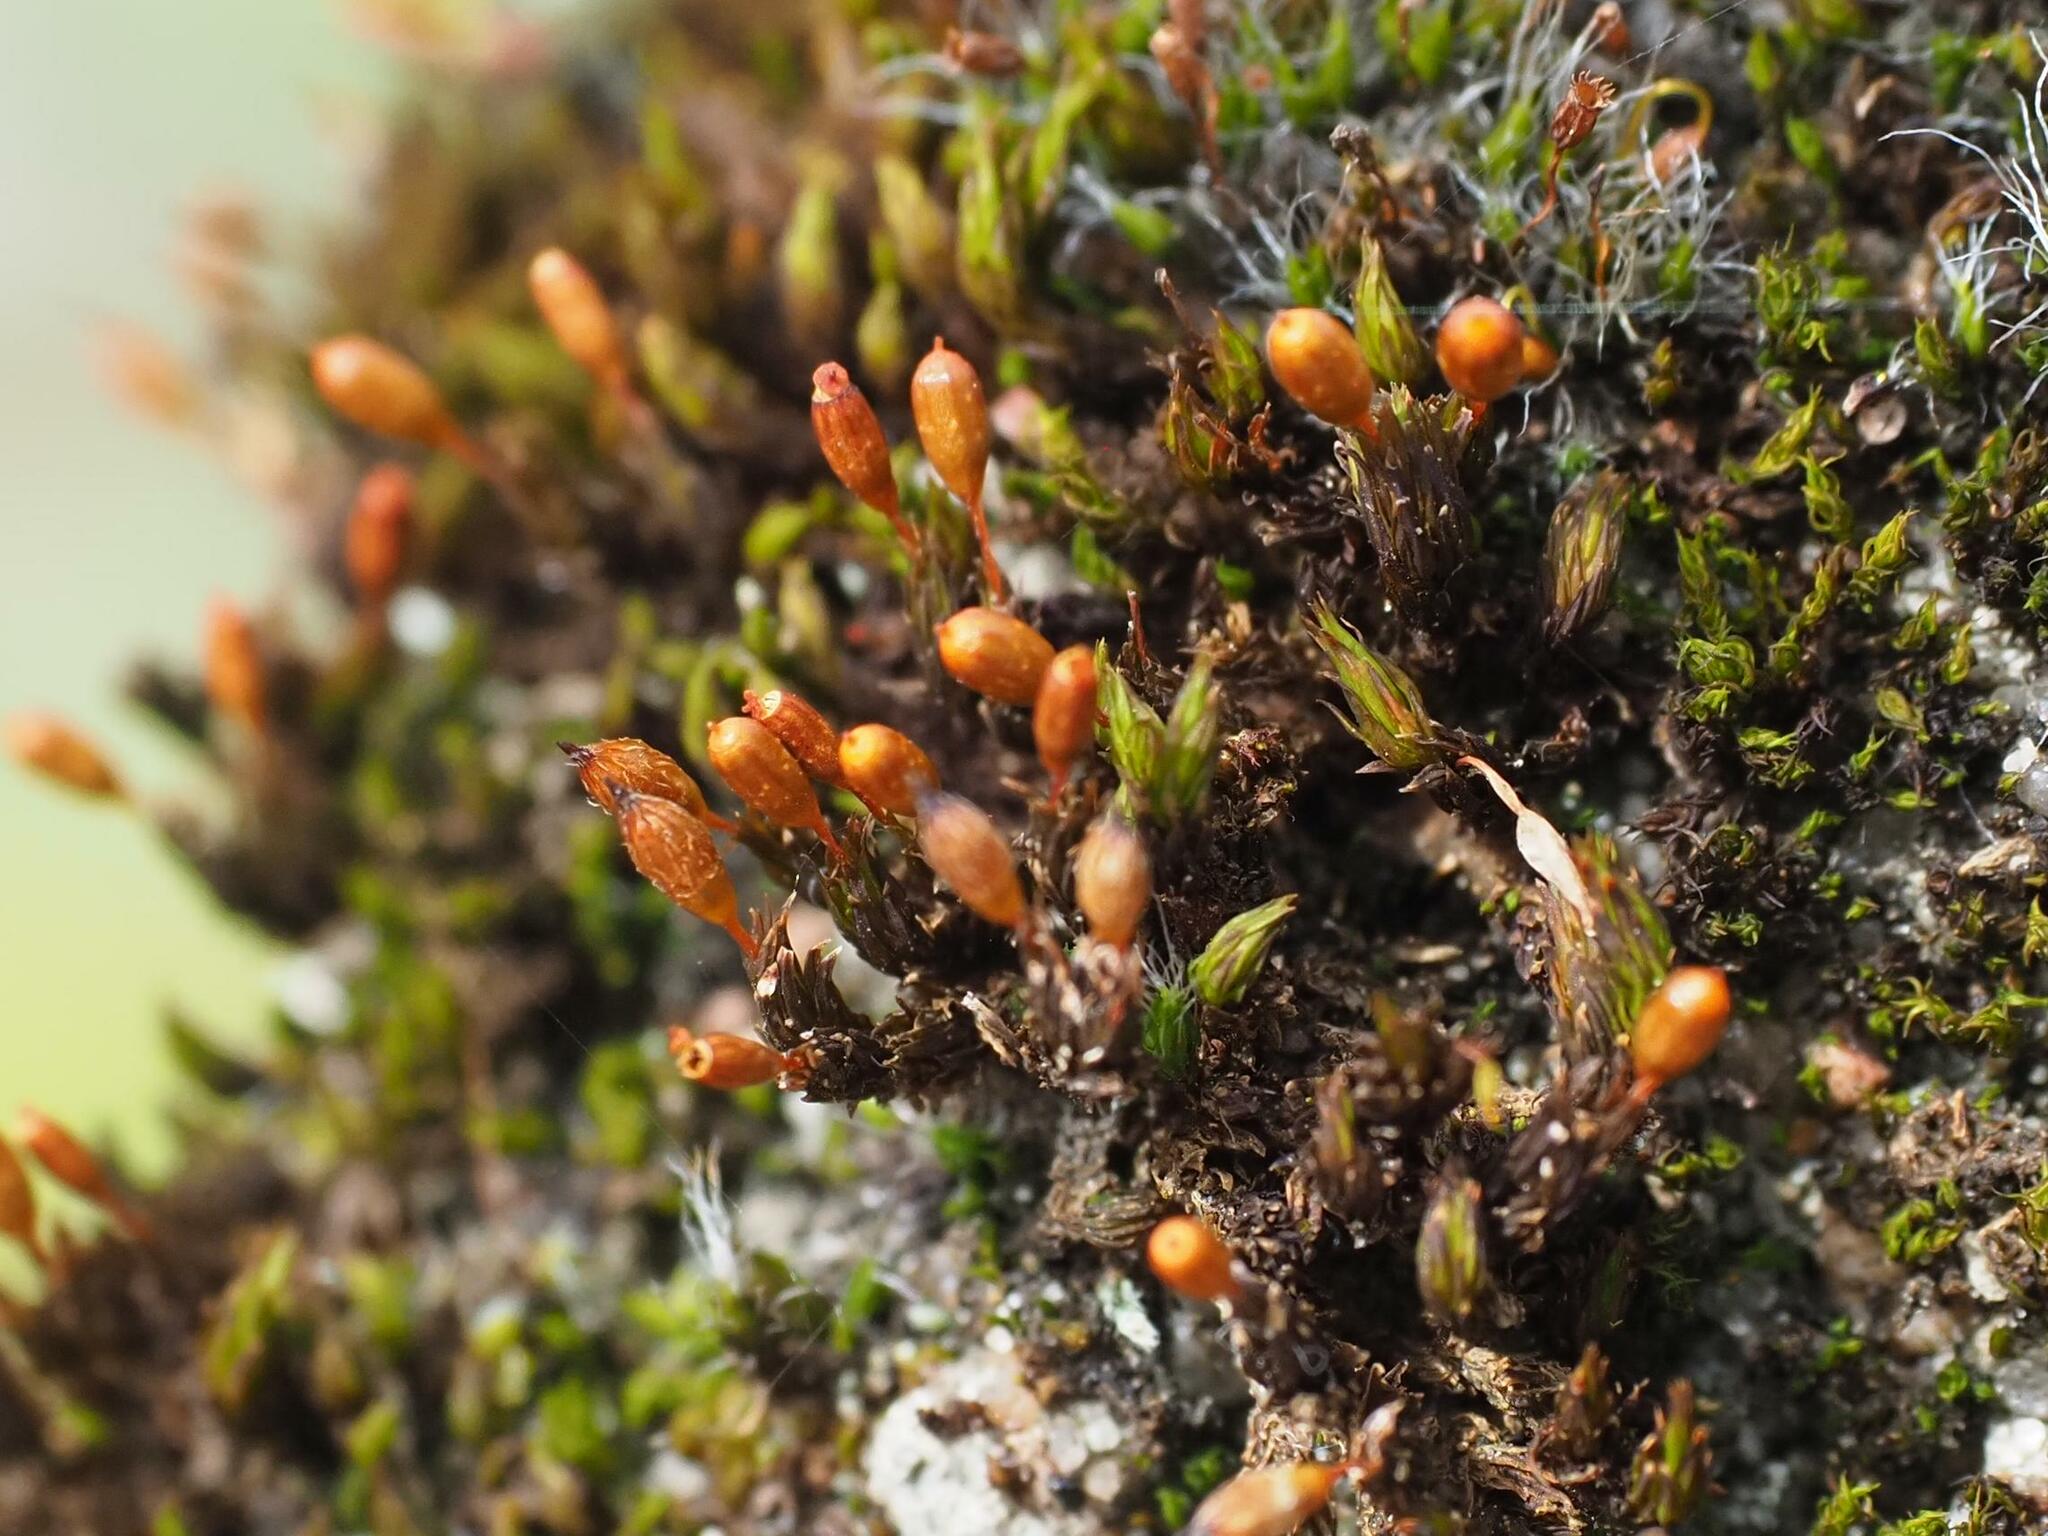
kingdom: Plantae
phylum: Bryophyta
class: Bryopsida
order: Orthotrichales
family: Orthotrichaceae
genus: Orthotrichum
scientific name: Orthotrichum anomalum
